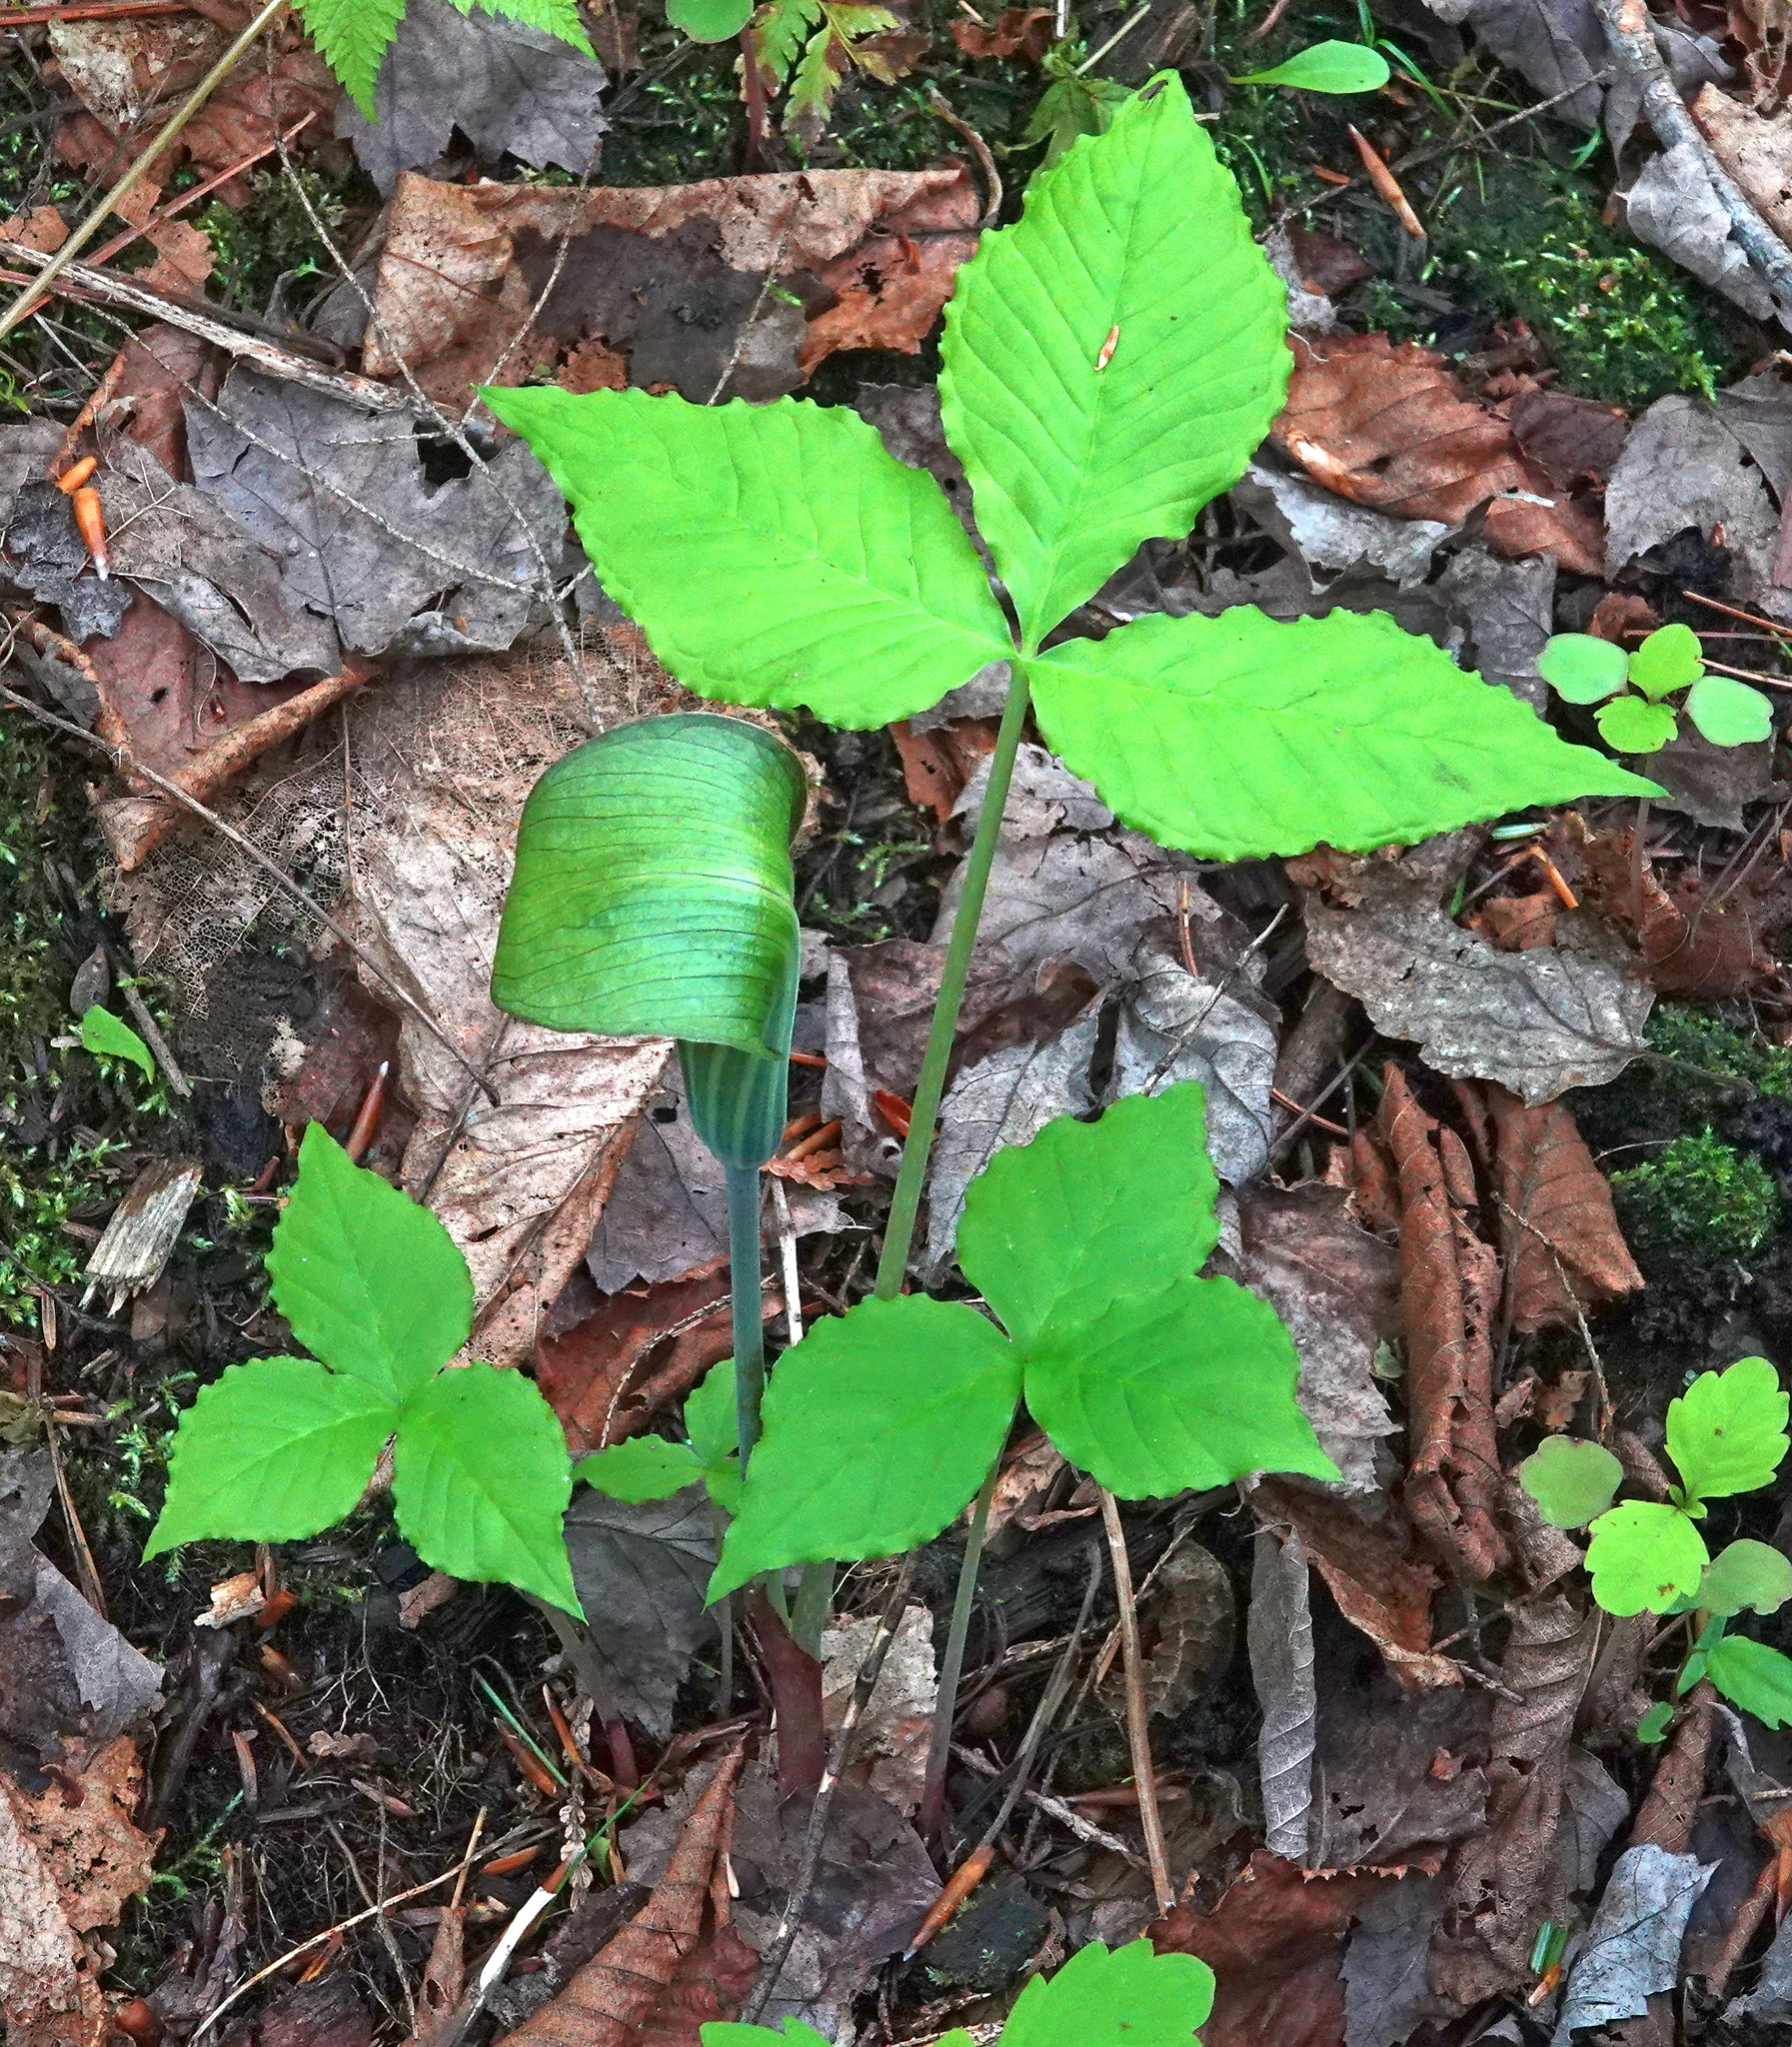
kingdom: Plantae
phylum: Tracheophyta
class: Liliopsida
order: Alismatales
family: Araceae
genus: Arisaema
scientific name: Arisaema triphyllum
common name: Jack-in-the-pulpit
